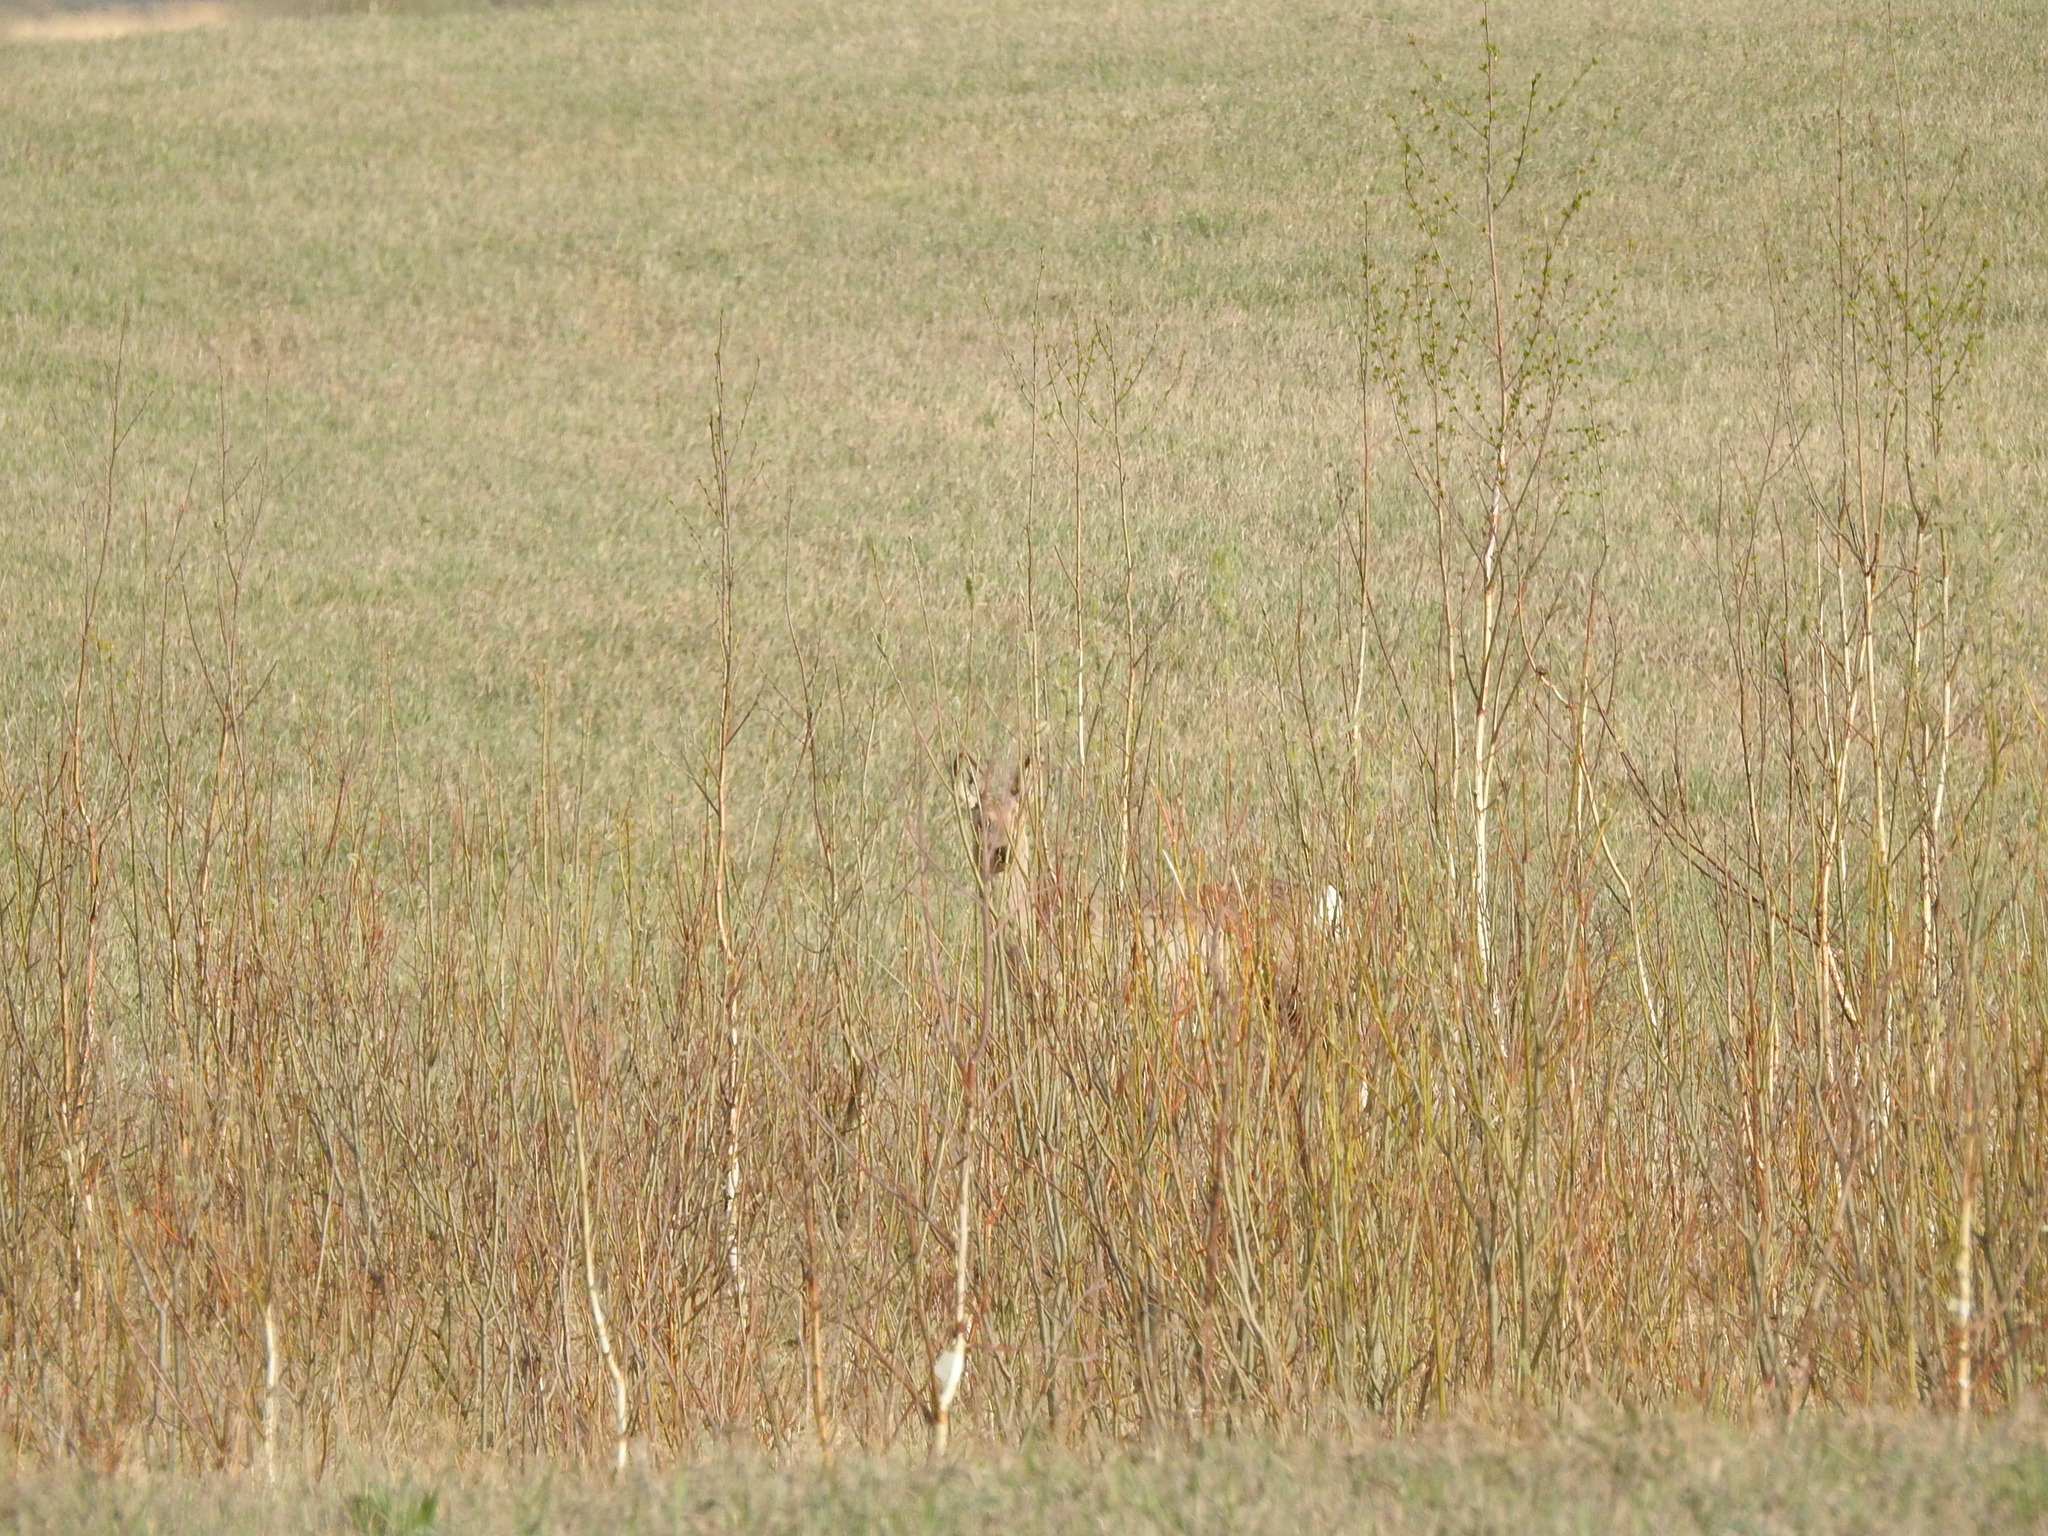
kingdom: Animalia
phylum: Chordata
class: Mammalia
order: Artiodactyla
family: Cervidae
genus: Capreolus
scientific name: Capreolus pygargus
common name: Siberian roe
